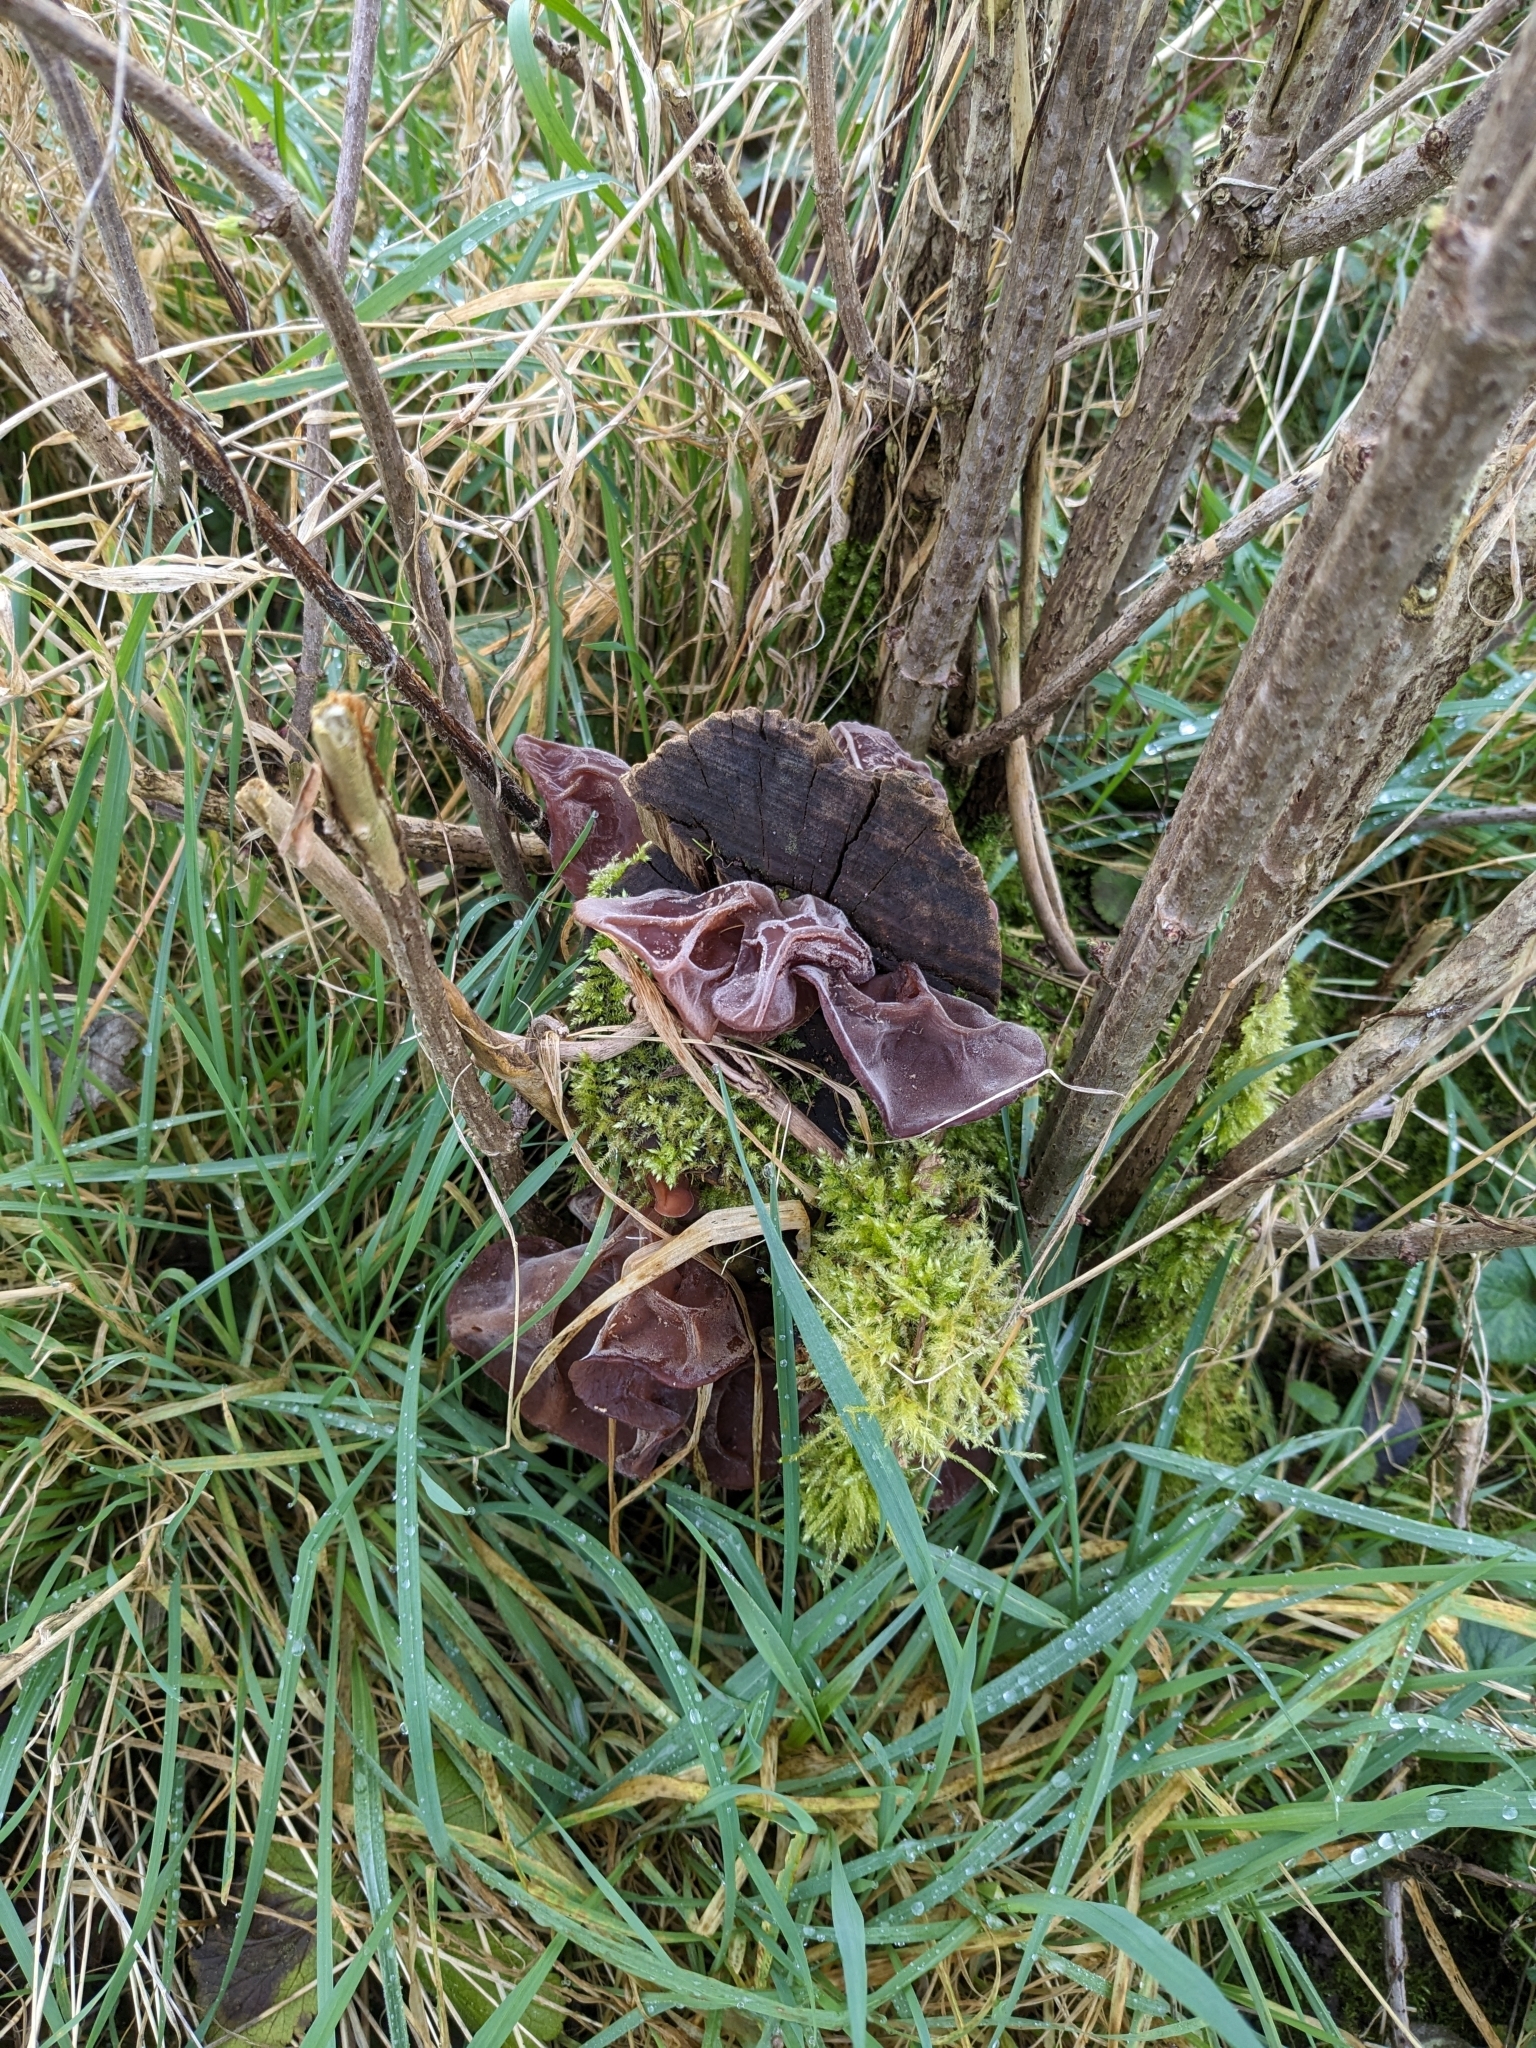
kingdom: Fungi
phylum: Basidiomycota
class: Agaricomycetes
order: Auriculariales
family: Auriculariaceae
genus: Auricularia
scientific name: Auricularia auricula-judae
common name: Jelly ear
